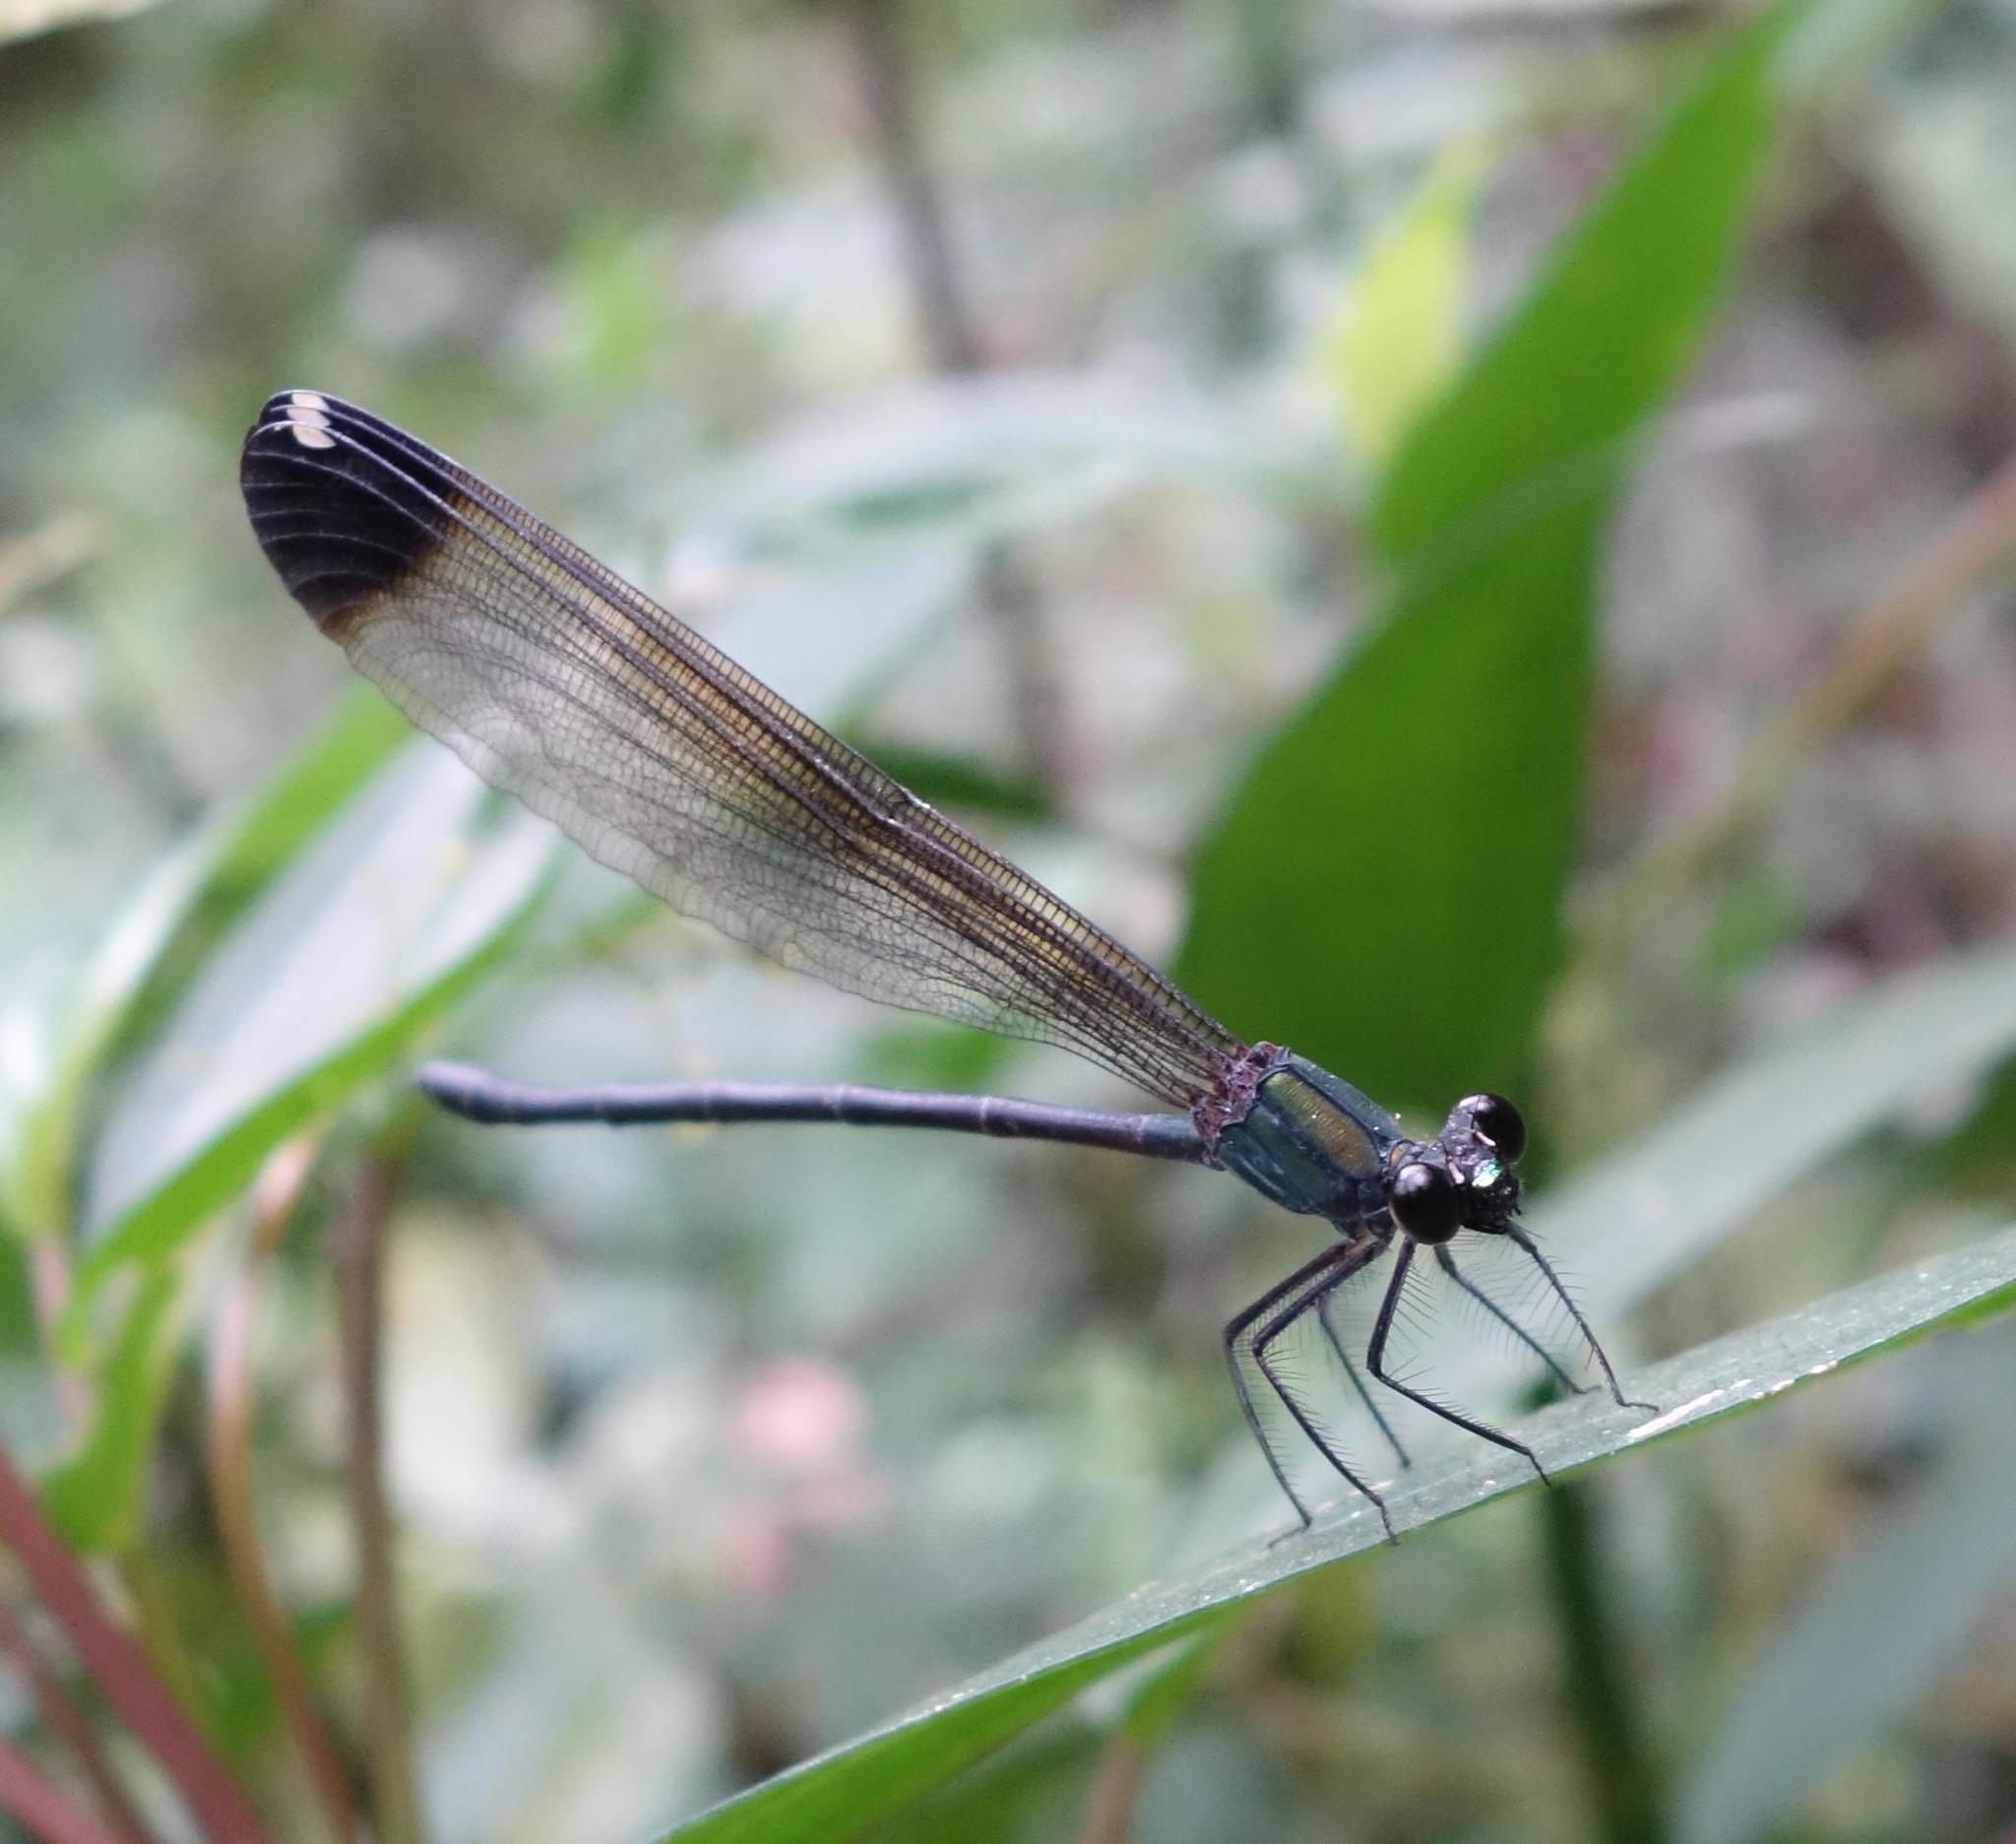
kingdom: Animalia
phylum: Arthropoda
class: Insecta
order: Odonata
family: Calopterygidae
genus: Psolodesmus
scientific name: Psolodesmus mandarinus
